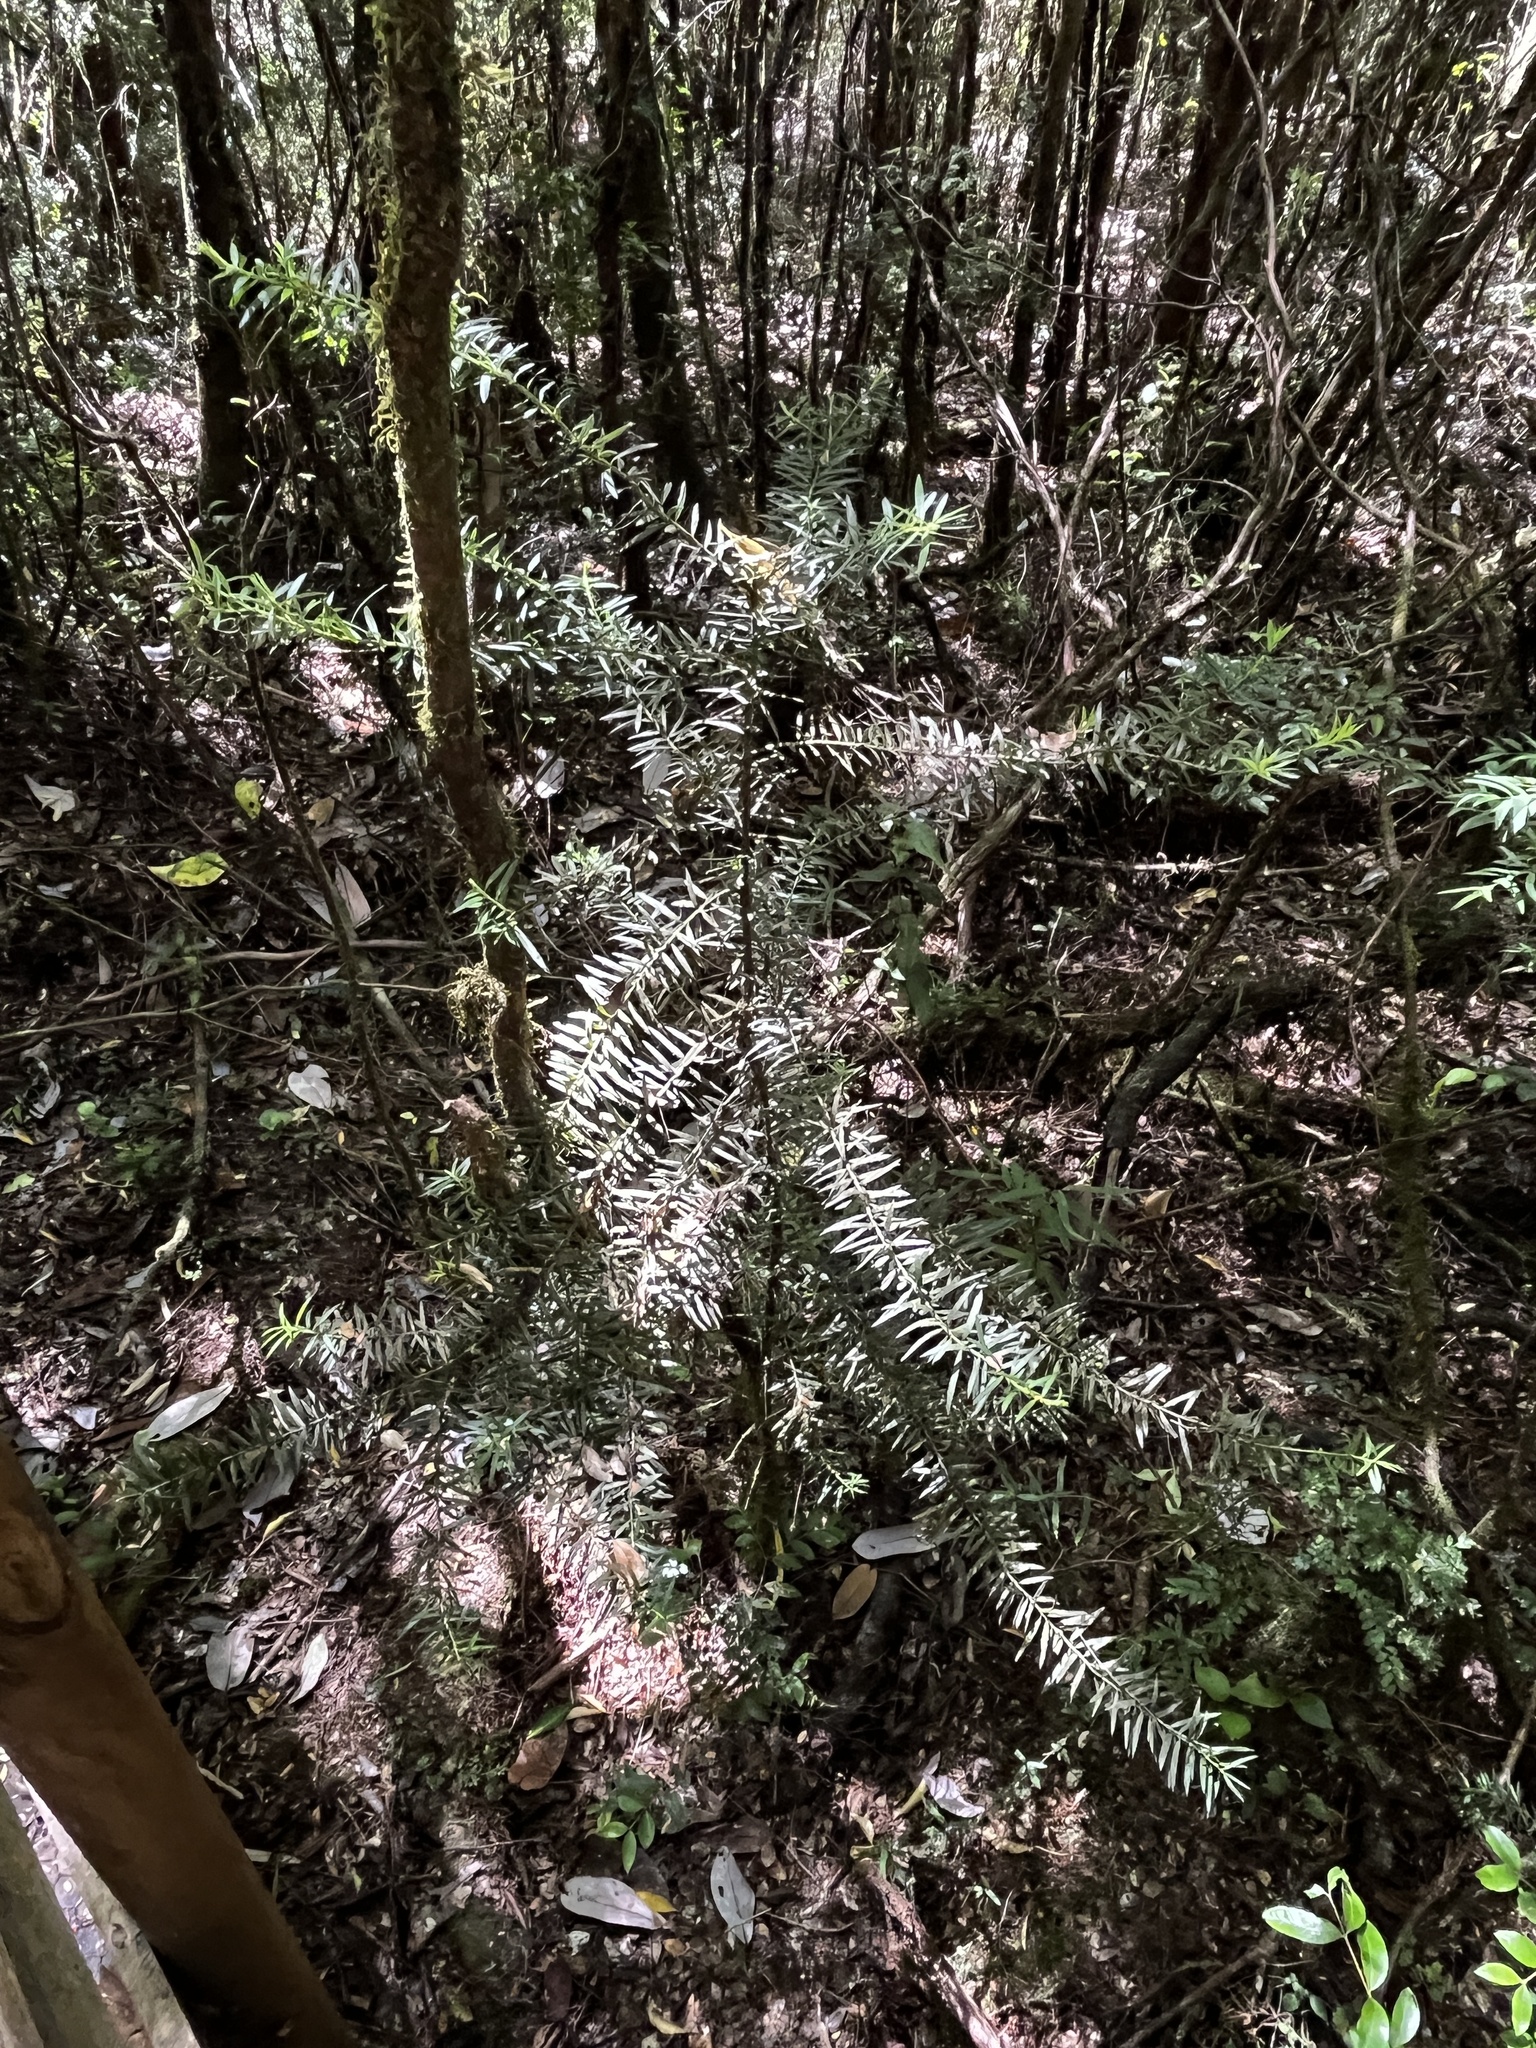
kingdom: Plantae
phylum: Tracheophyta
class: Pinopsida
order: Pinales
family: Podocarpaceae
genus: Podocarpus
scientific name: Podocarpus nubigenus
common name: Cloud podocarp
